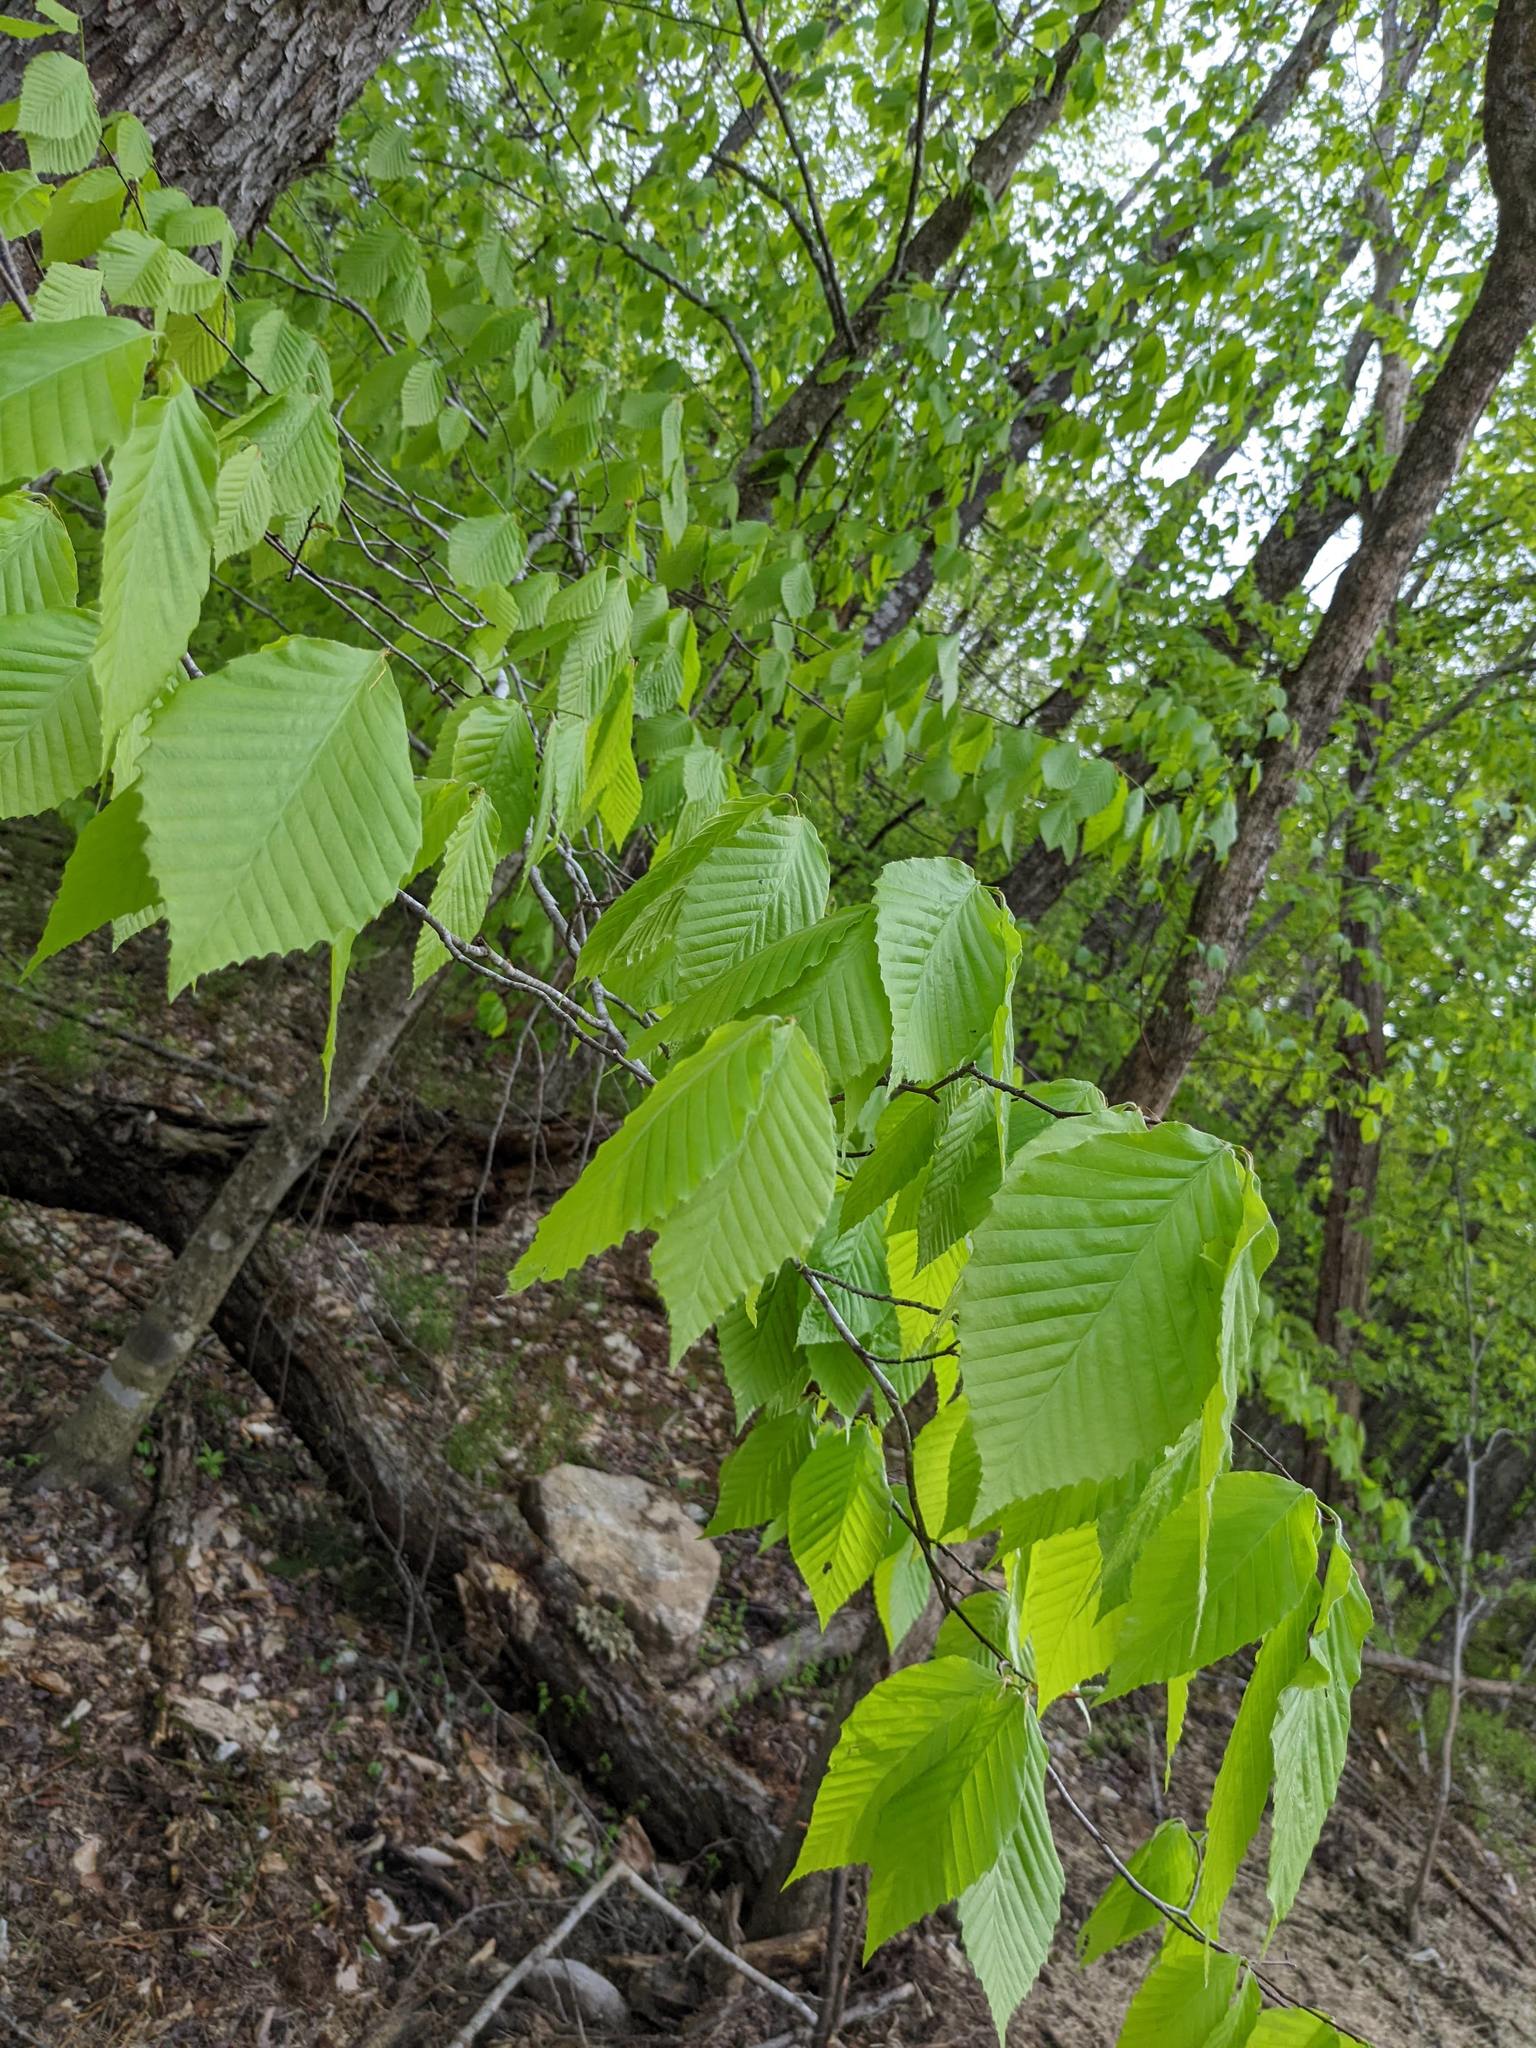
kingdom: Plantae
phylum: Tracheophyta
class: Magnoliopsida
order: Fagales
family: Fagaceae
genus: Fagus
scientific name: Fagus grandifolia
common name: American beech
